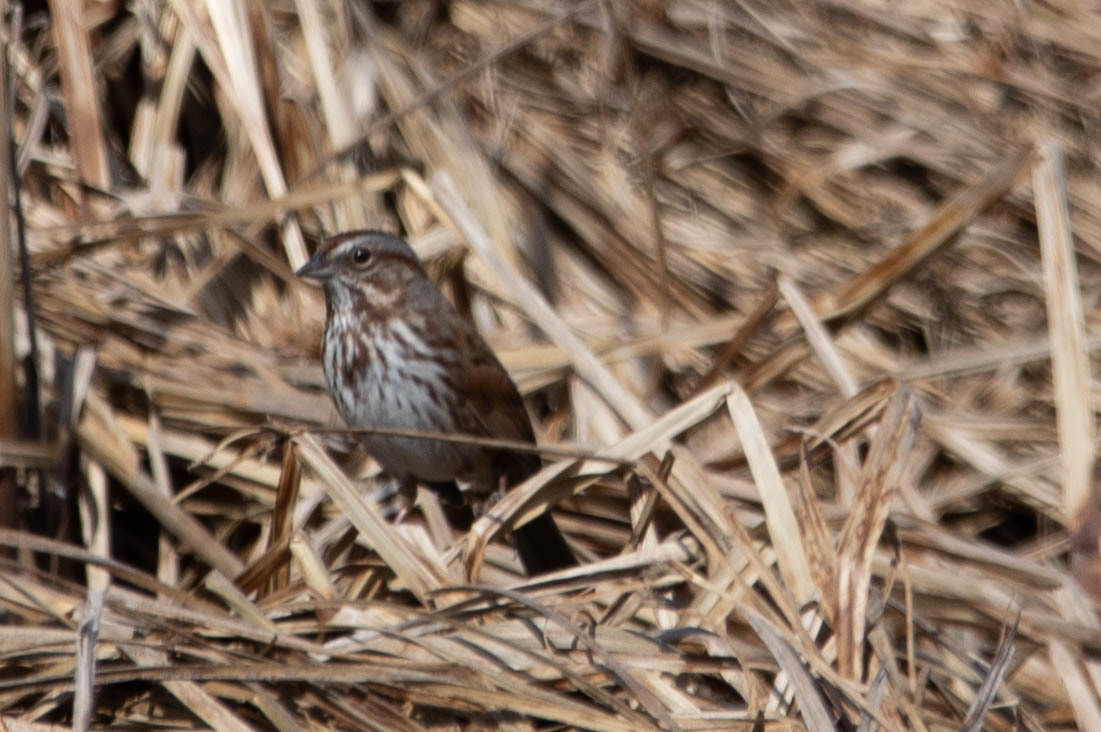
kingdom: Animalia
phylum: Chordata
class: Aves
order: Passeriformes
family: Passerellidae
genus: Melospiza
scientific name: Melospiza melodia
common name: Song sparrow
